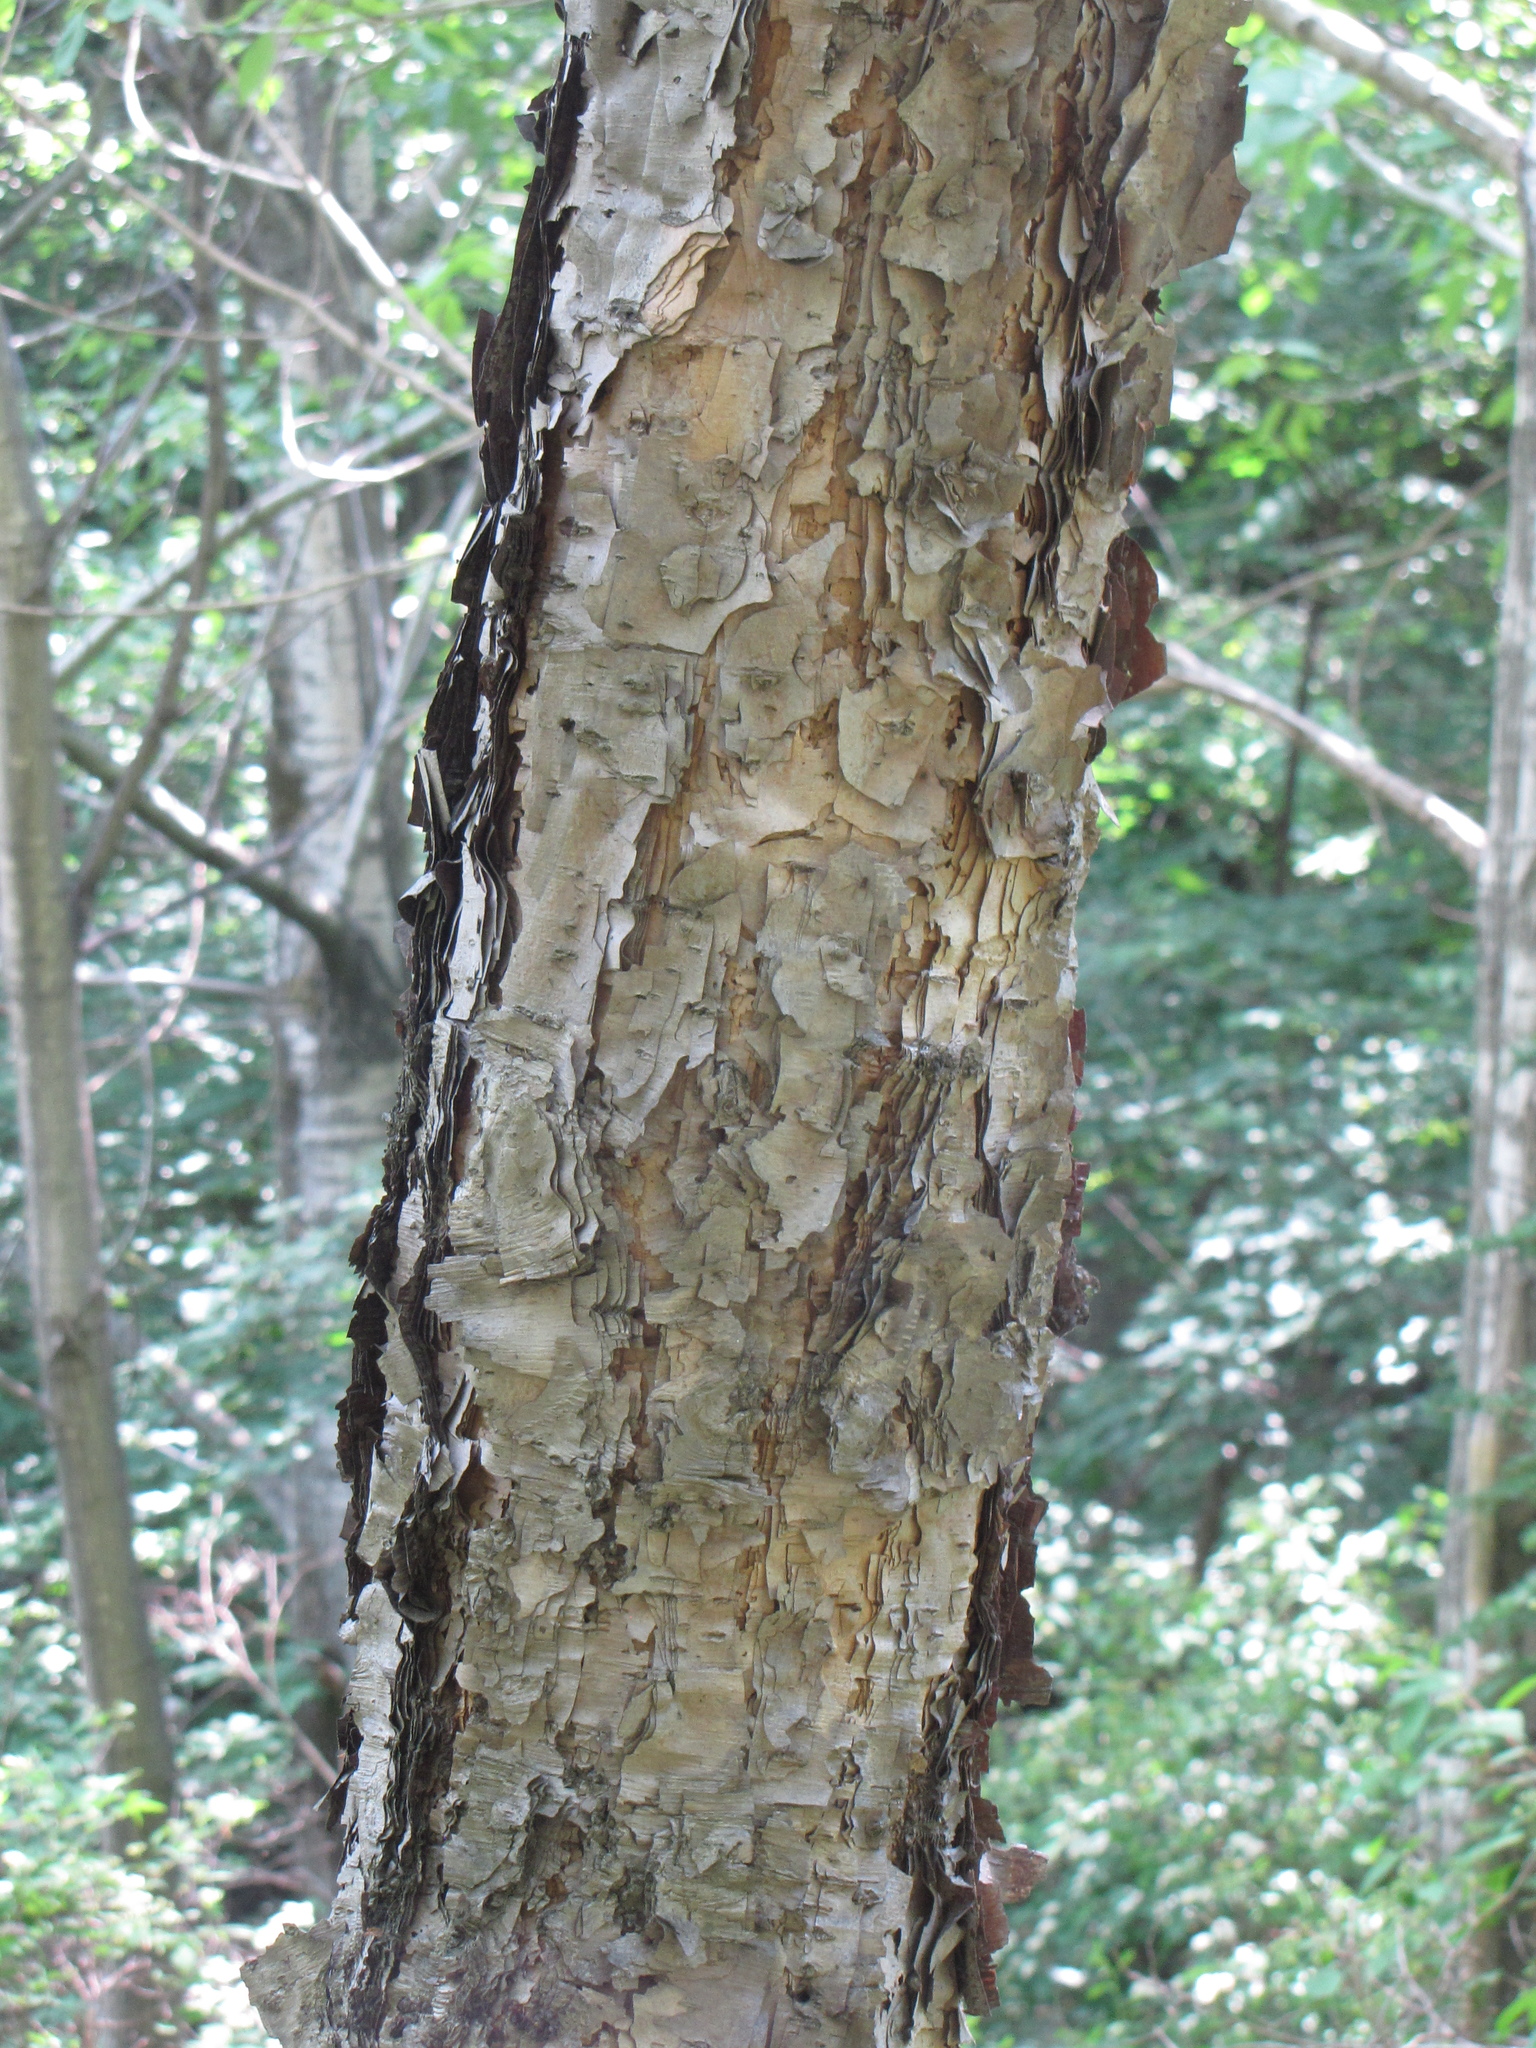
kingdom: Plantae
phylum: Tracheophyta
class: Magnoliopsida
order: Fagales
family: Betulaceae
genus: Betula
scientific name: Betula dauurica
